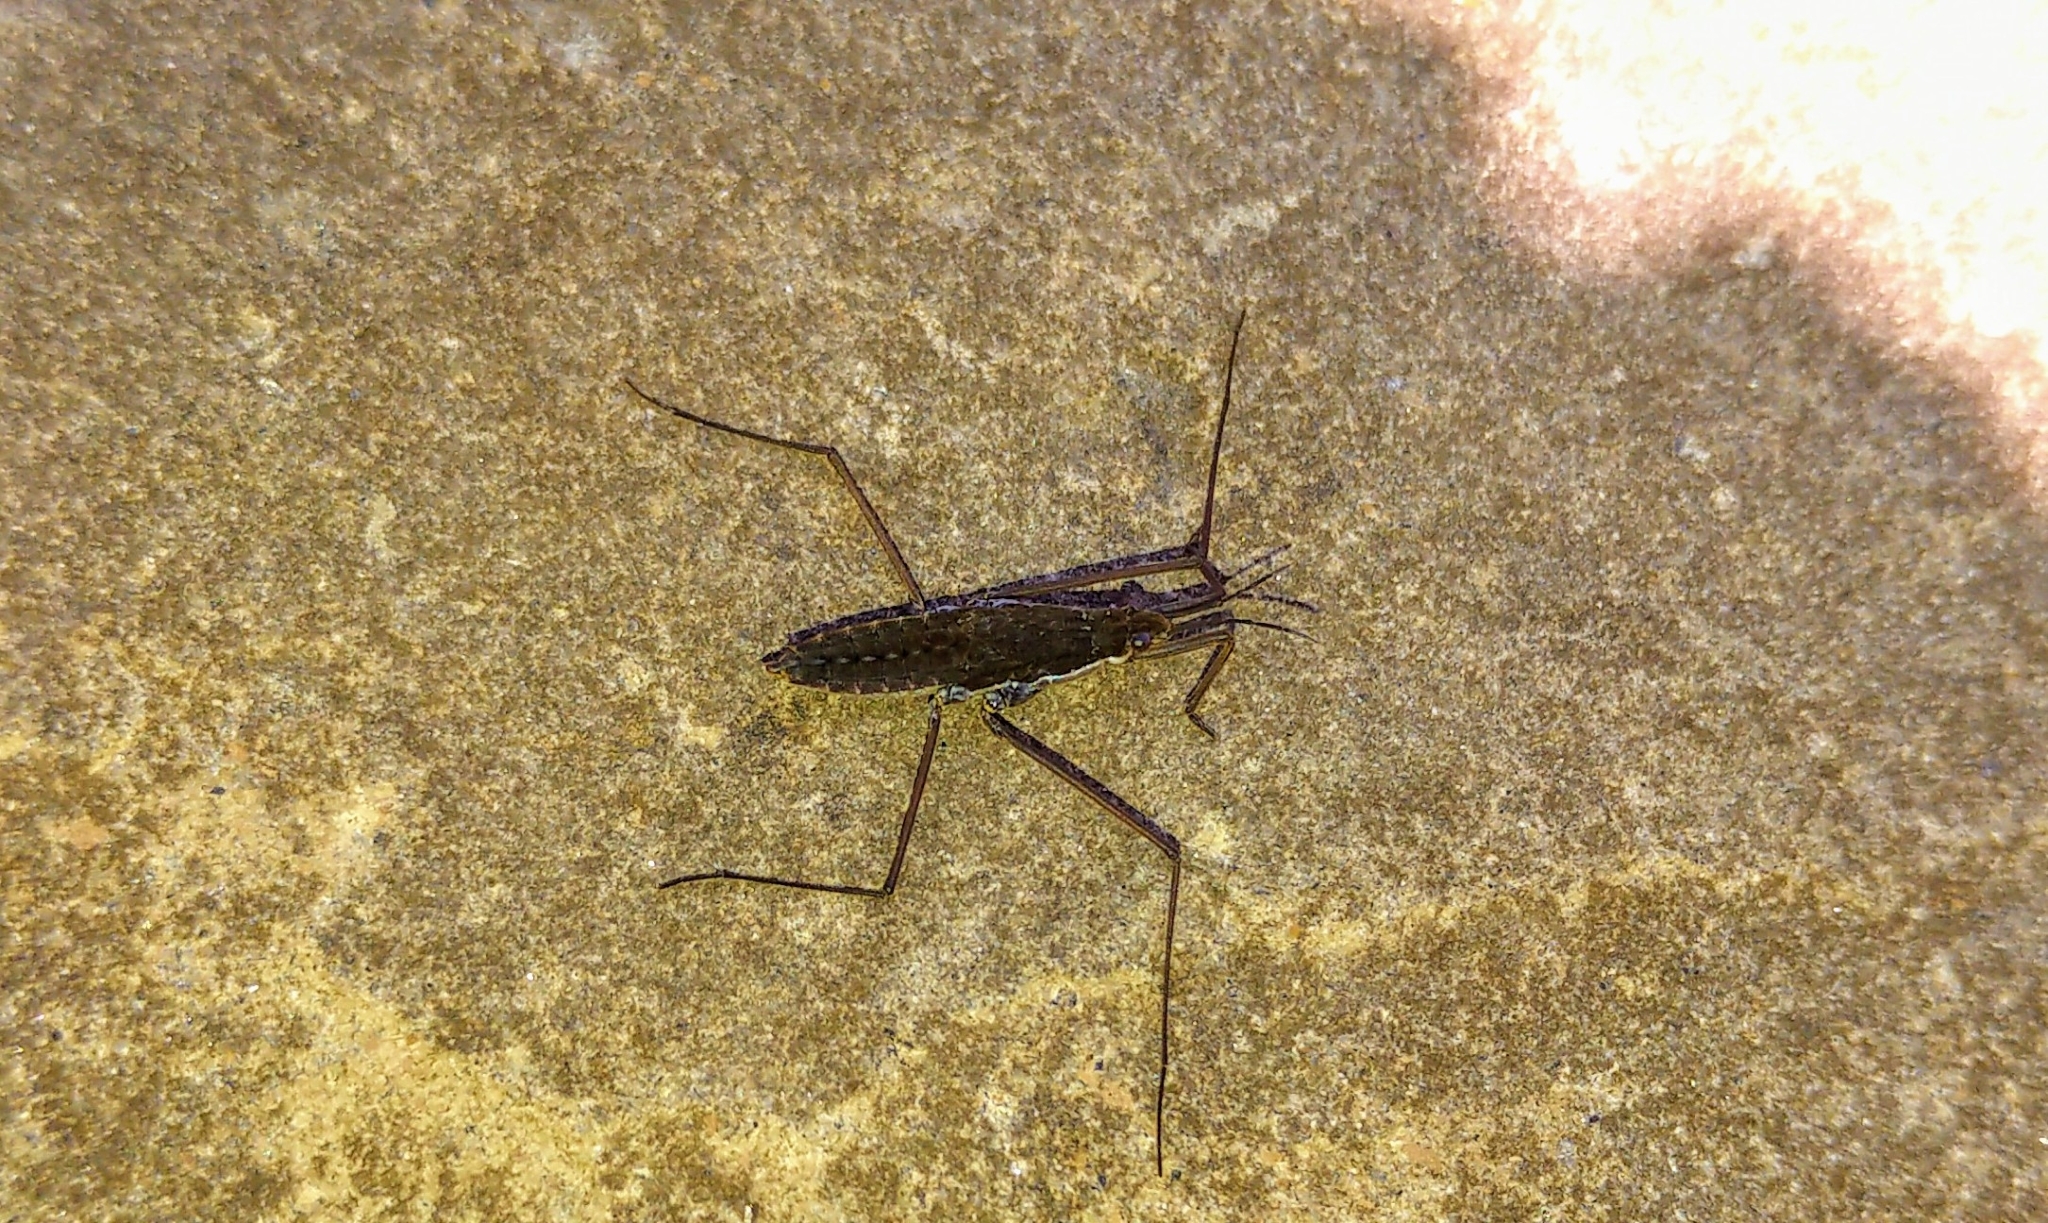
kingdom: Animalia
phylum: Arthropoda
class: Insecta
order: Hemiptera
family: Gerridae
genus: Aquarius
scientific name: Aquarius remigis
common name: Common water strider
